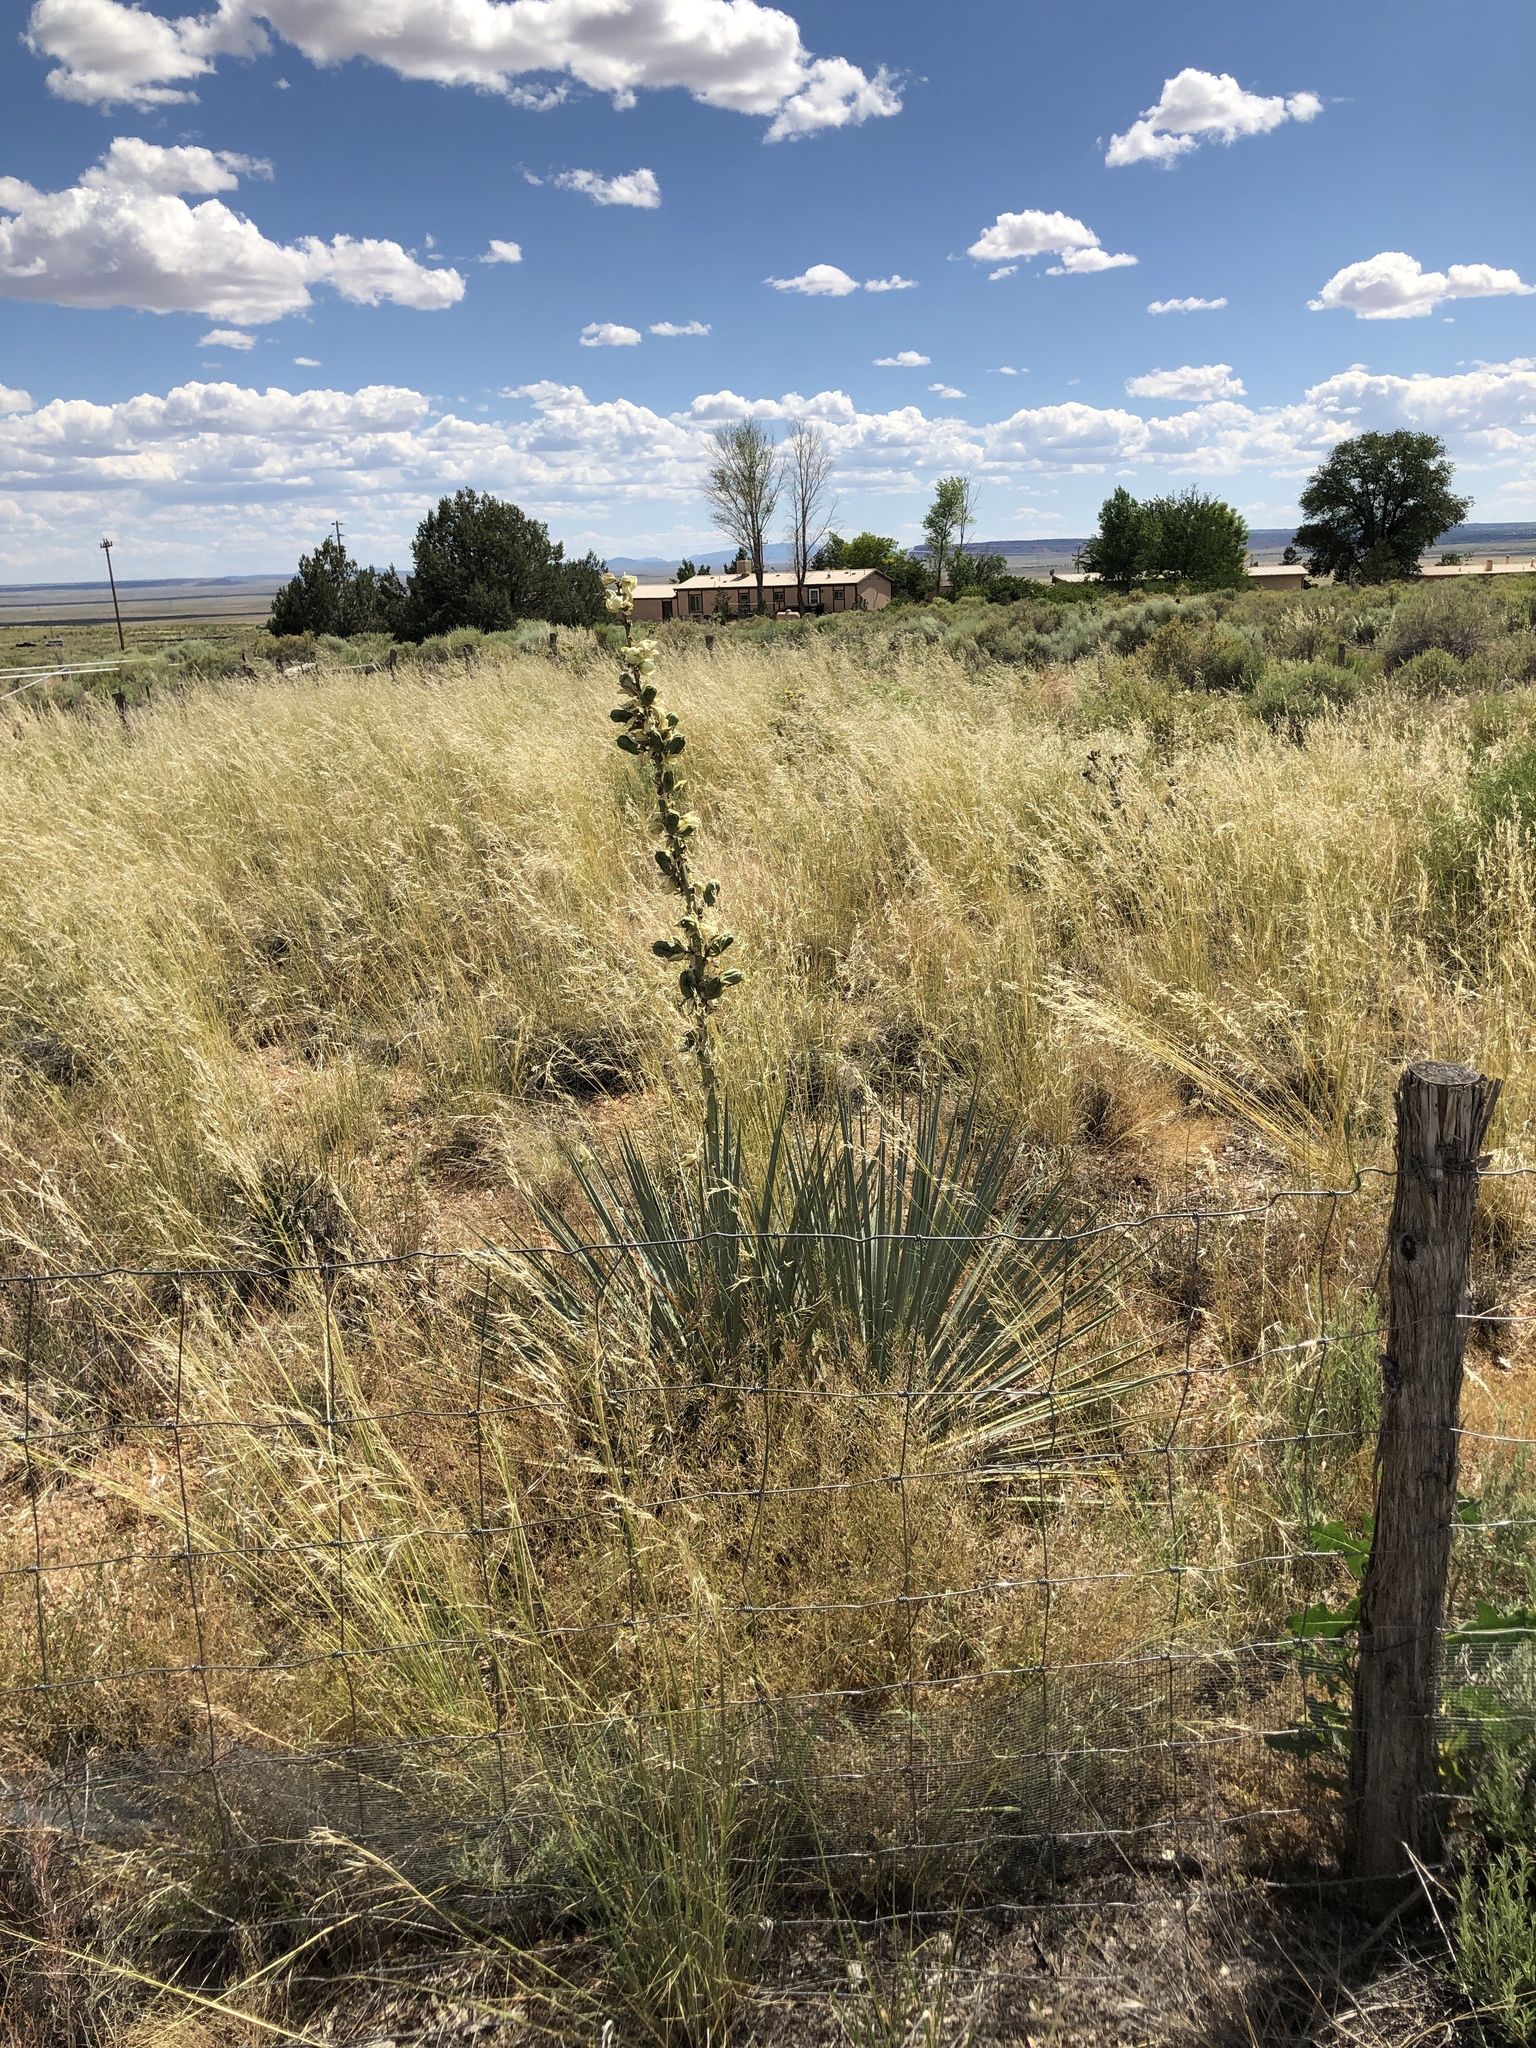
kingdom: Plantae
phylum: Tracheophyta
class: Liliopsida
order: Asparagales
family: Asparagaceae
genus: Yucca
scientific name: Yucca angustissima
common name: Narrowleaf yucca
